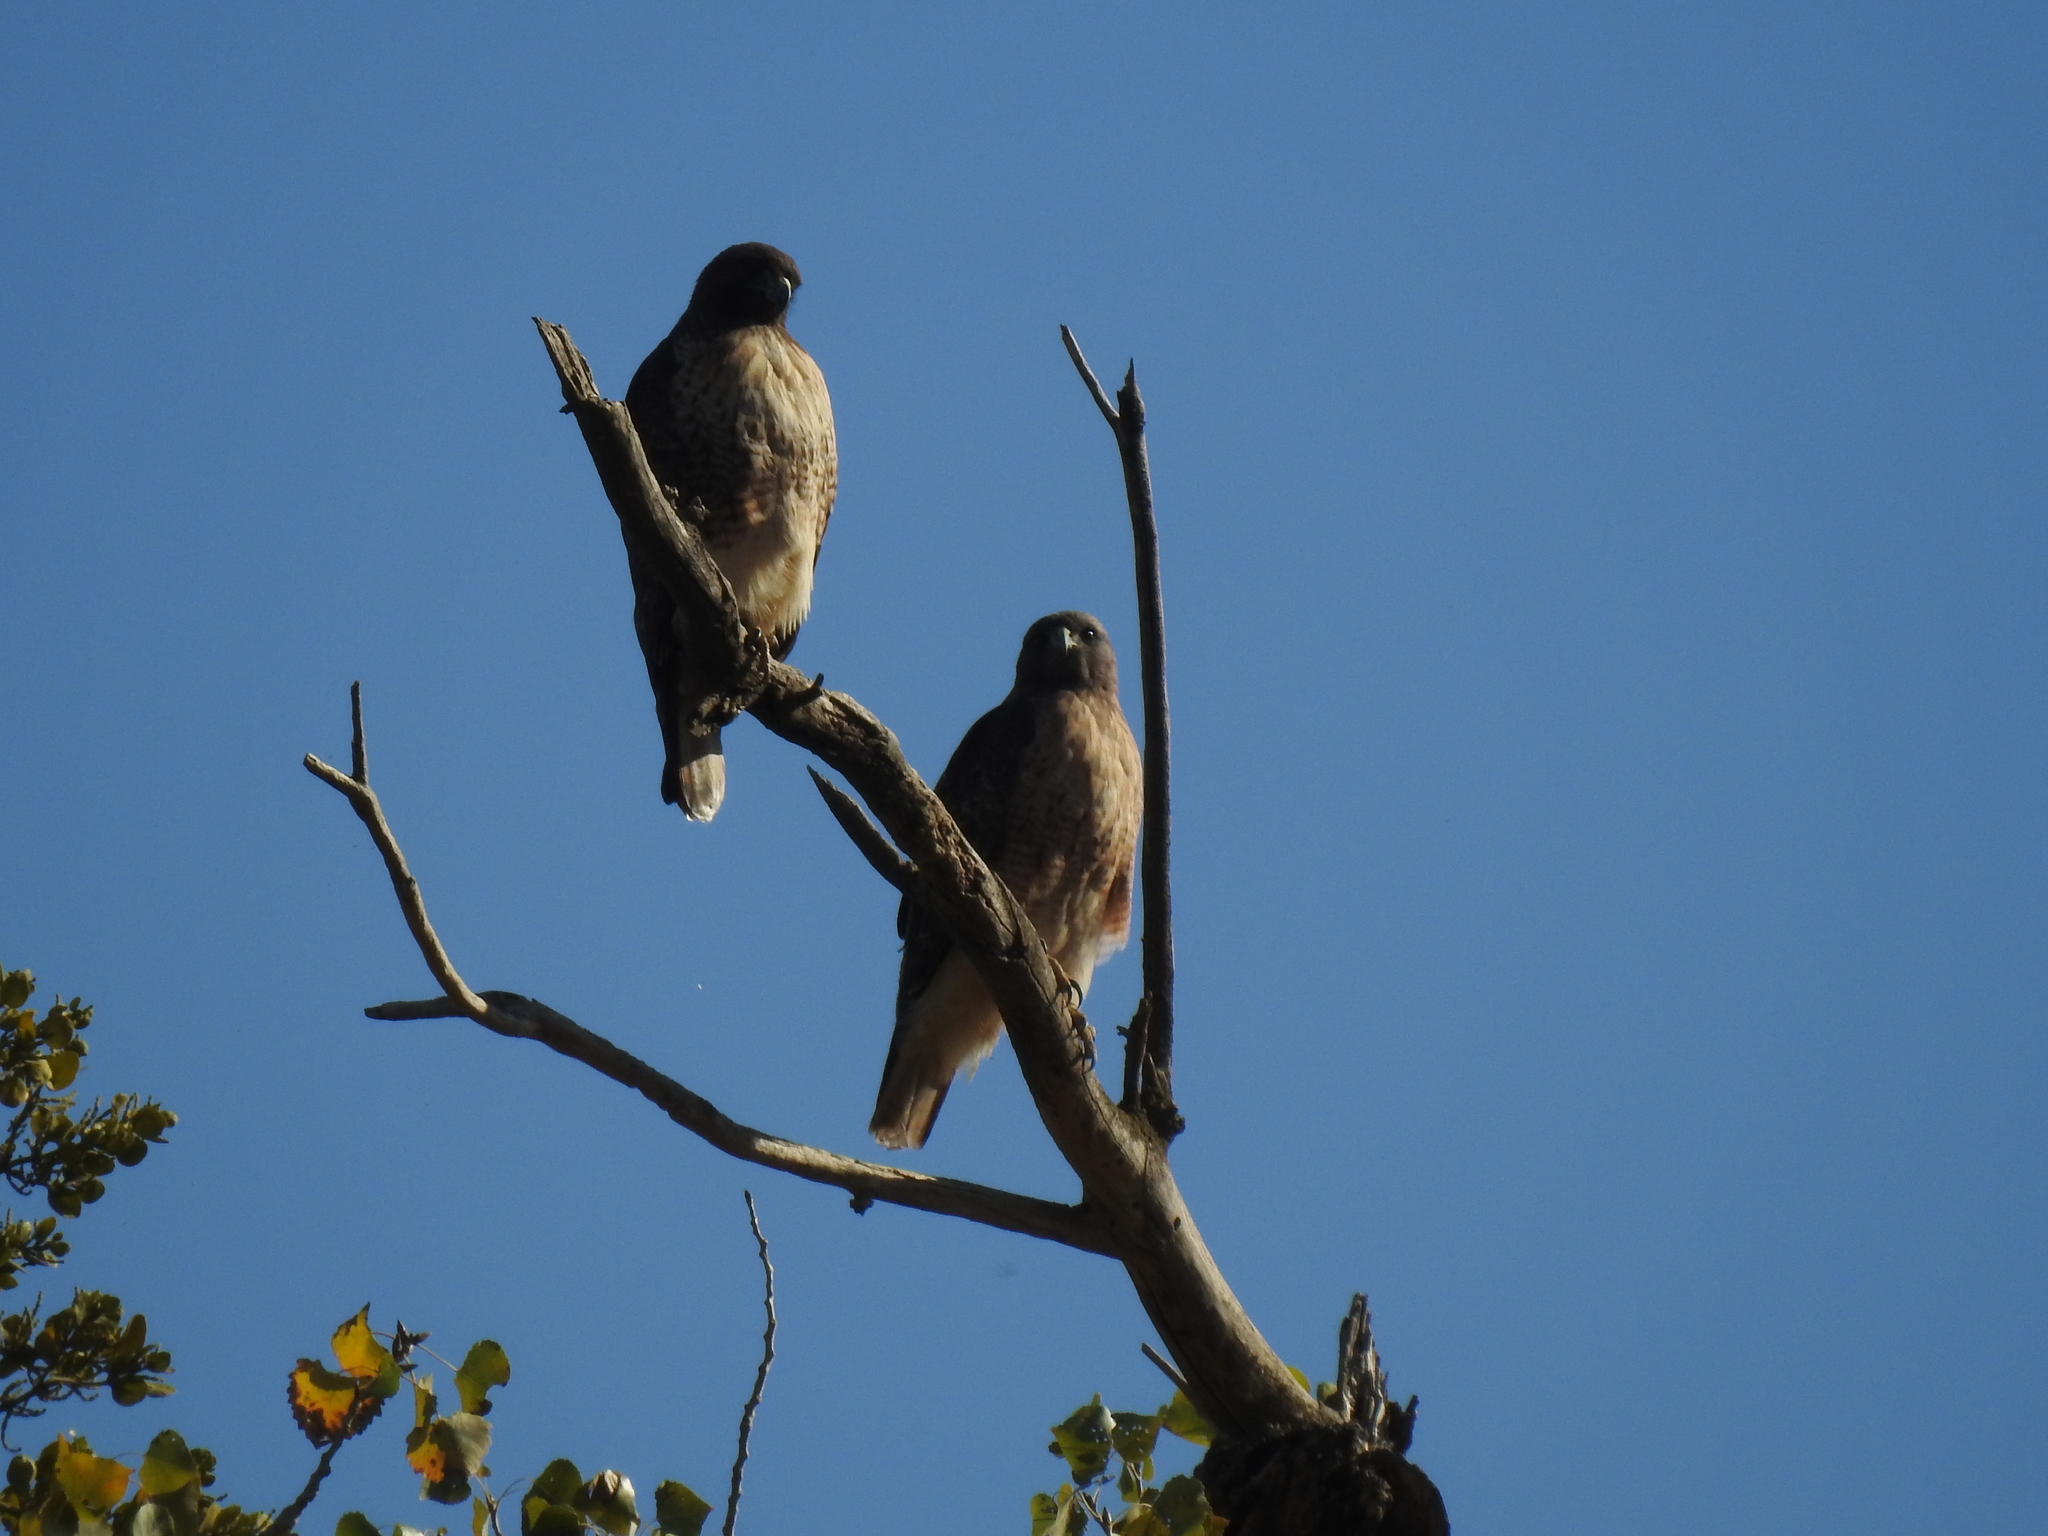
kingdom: Animalia
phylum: Chordata
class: Aves
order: Accipitriformes
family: Accipitridae
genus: Buteo
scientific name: Buteo jamaicensis
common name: Red-tailed hawk
